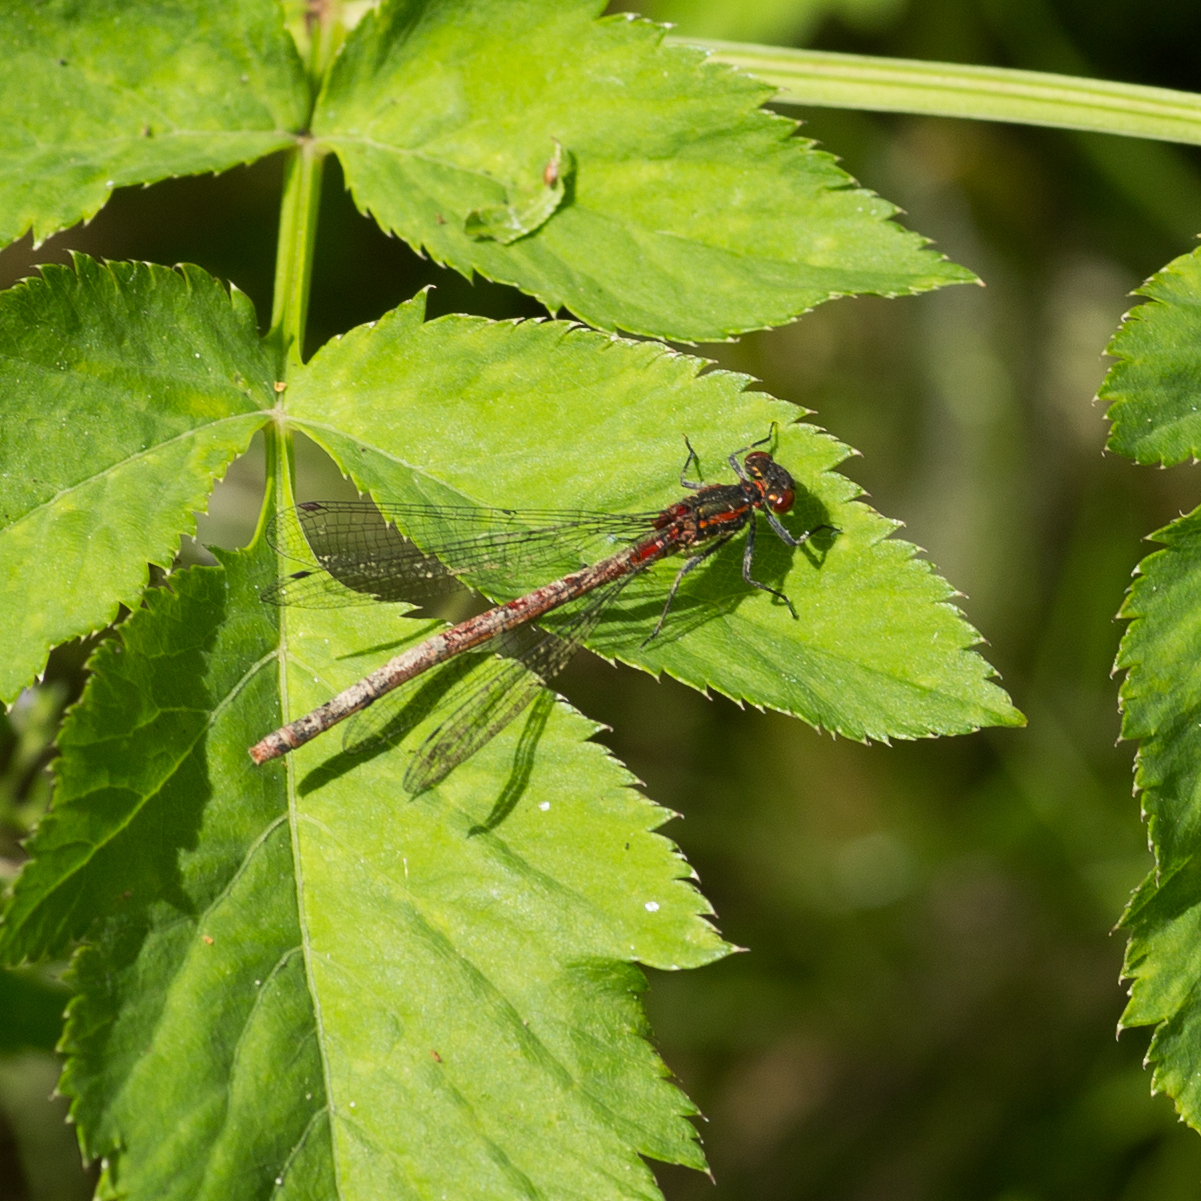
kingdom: Animalia
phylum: Arthropoda
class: Insecta
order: Odonata
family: Coenagrionidae
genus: Pyrrhosoma
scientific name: Pyrrhosoma nymphula
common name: Large red damsel
